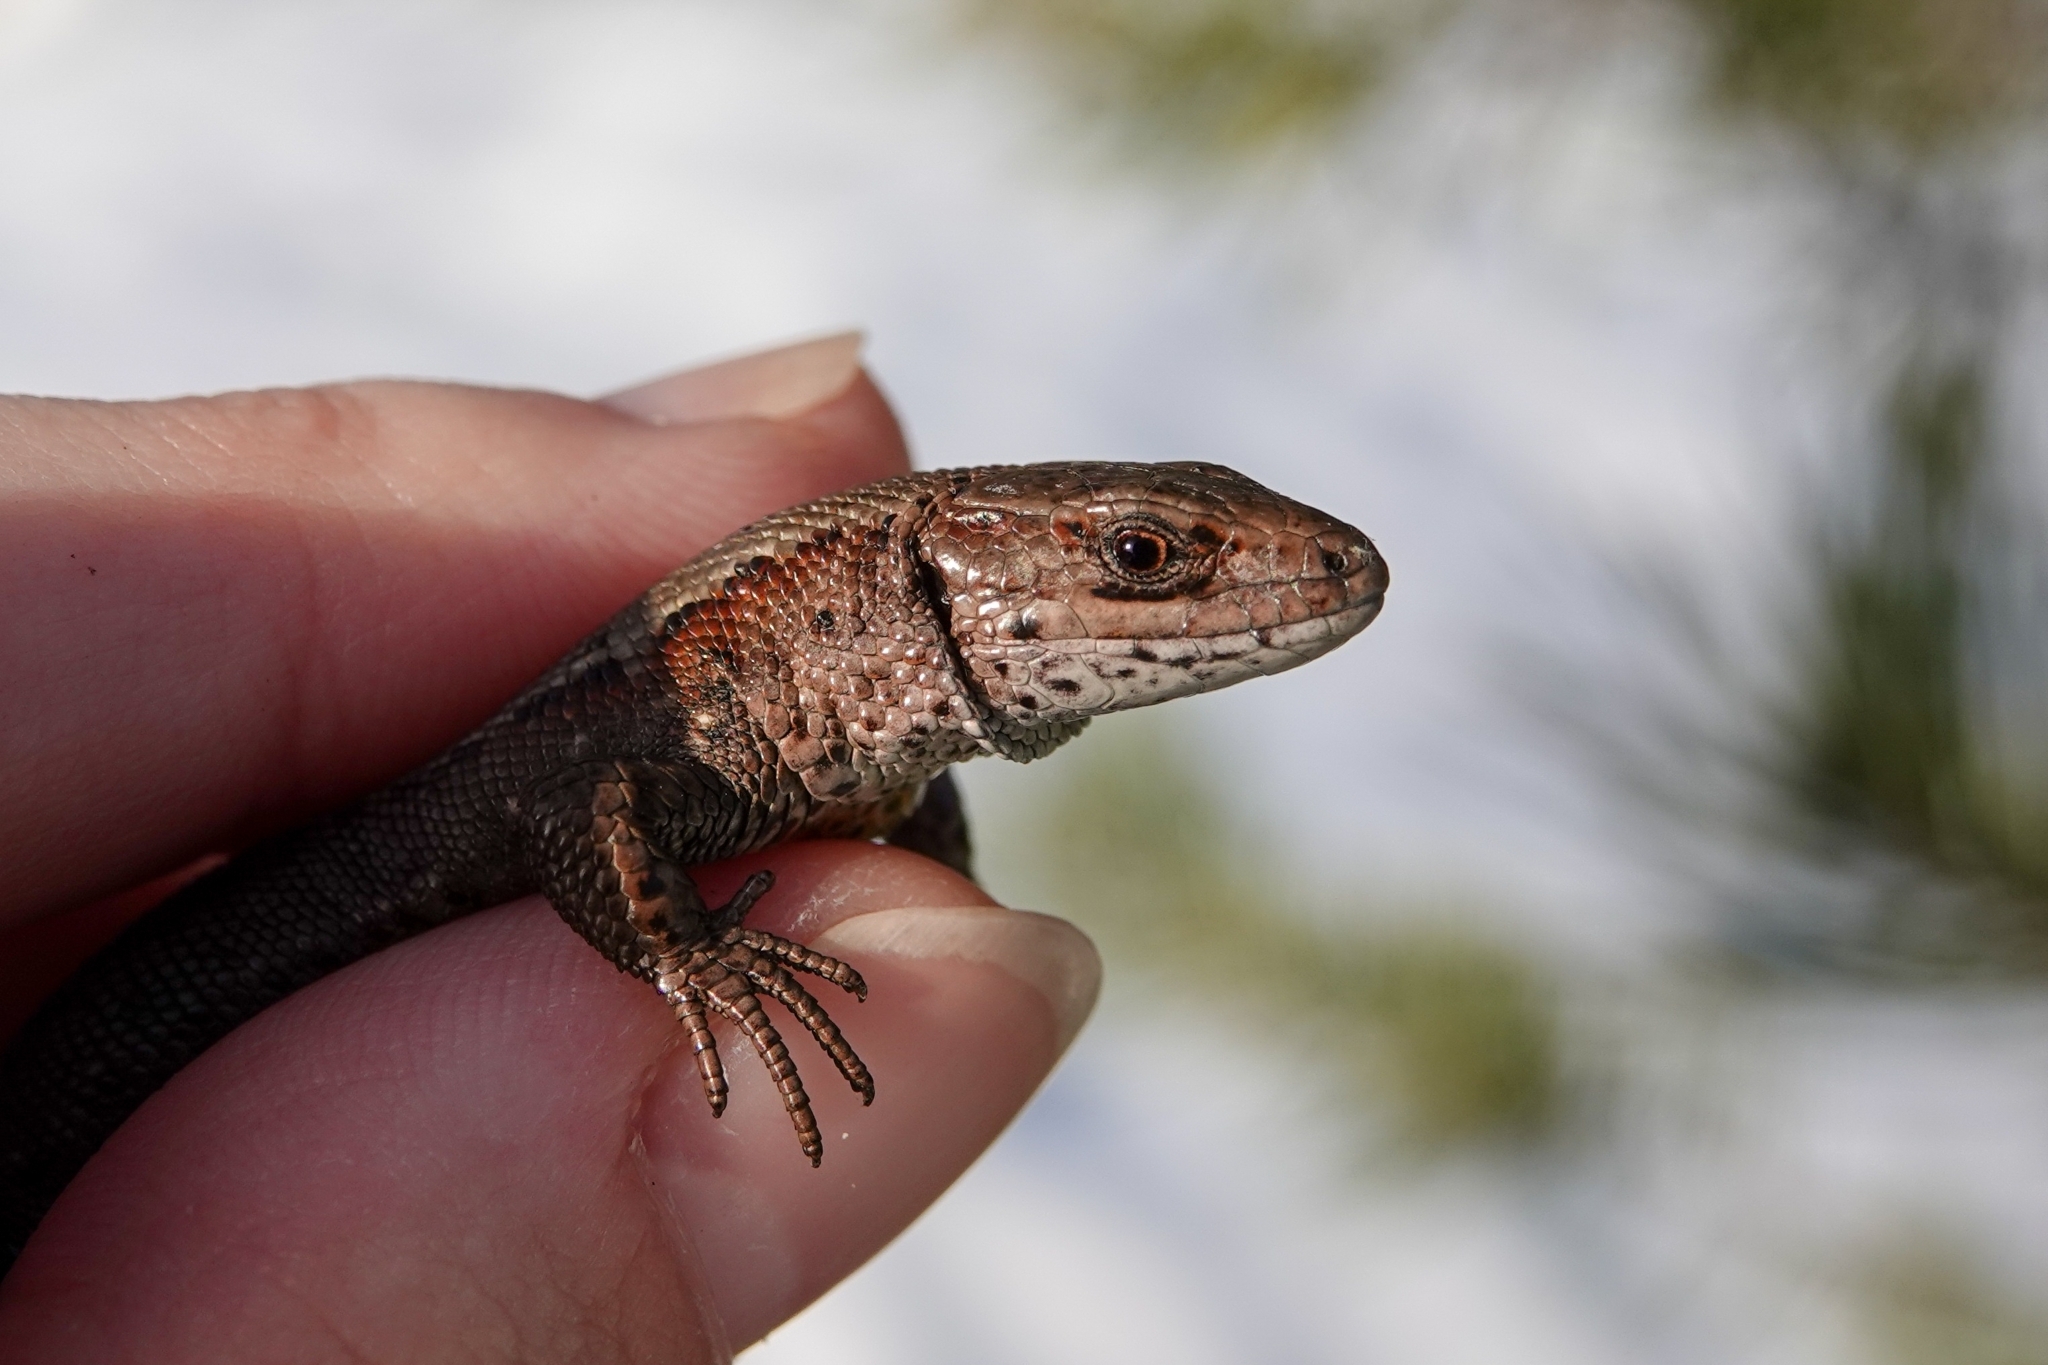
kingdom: Animalia
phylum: Chordata
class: Squamata
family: Lacertidae
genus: Zootoca
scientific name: Zootoca vivipara
